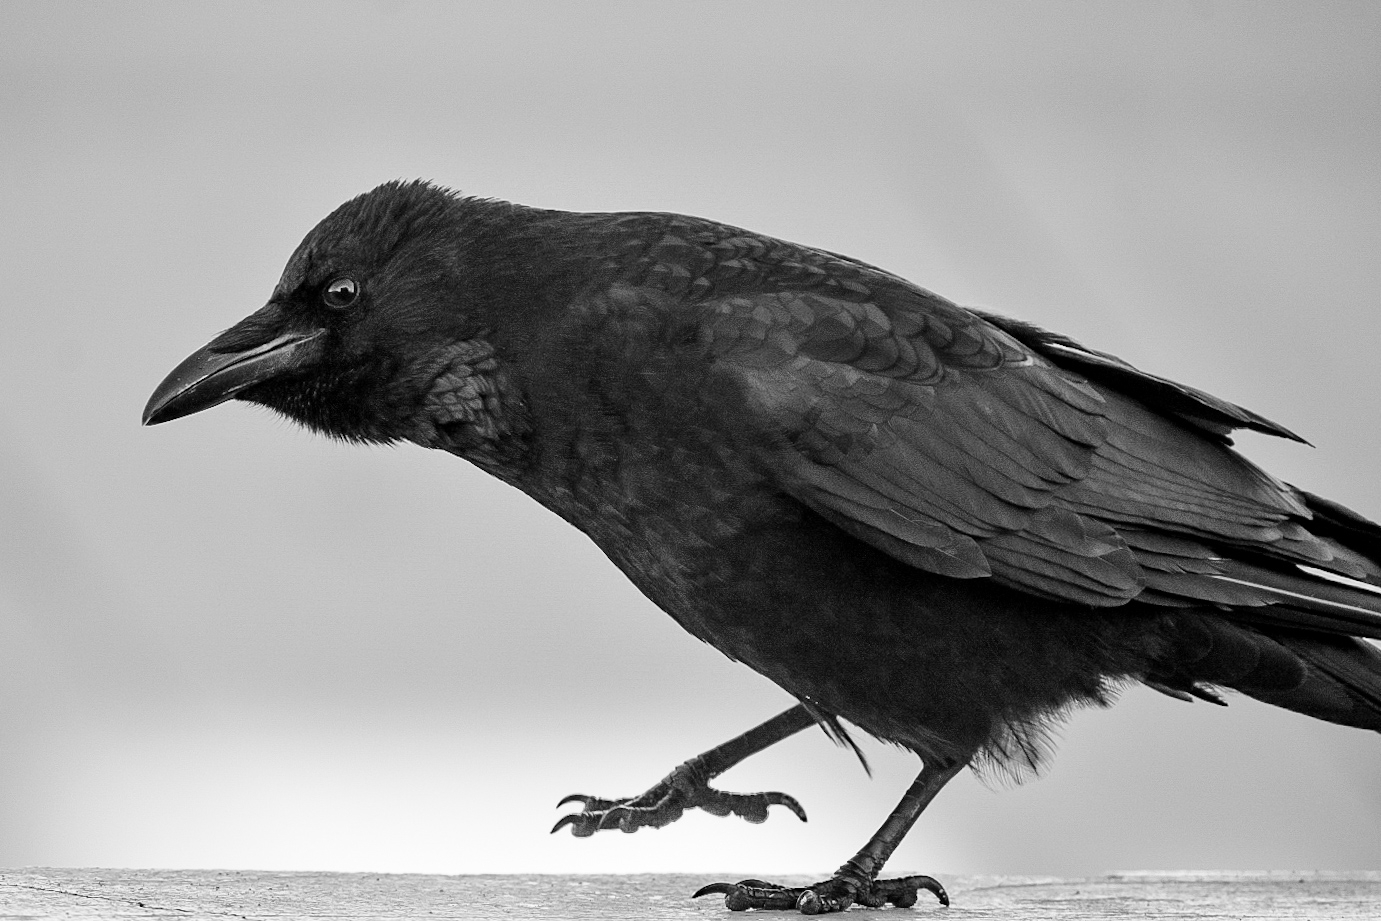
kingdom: Animalia
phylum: Chordata
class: Aves
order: Passeriformes
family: Corvidae
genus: Corvus
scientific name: Corvus corone
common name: Carrion crow
